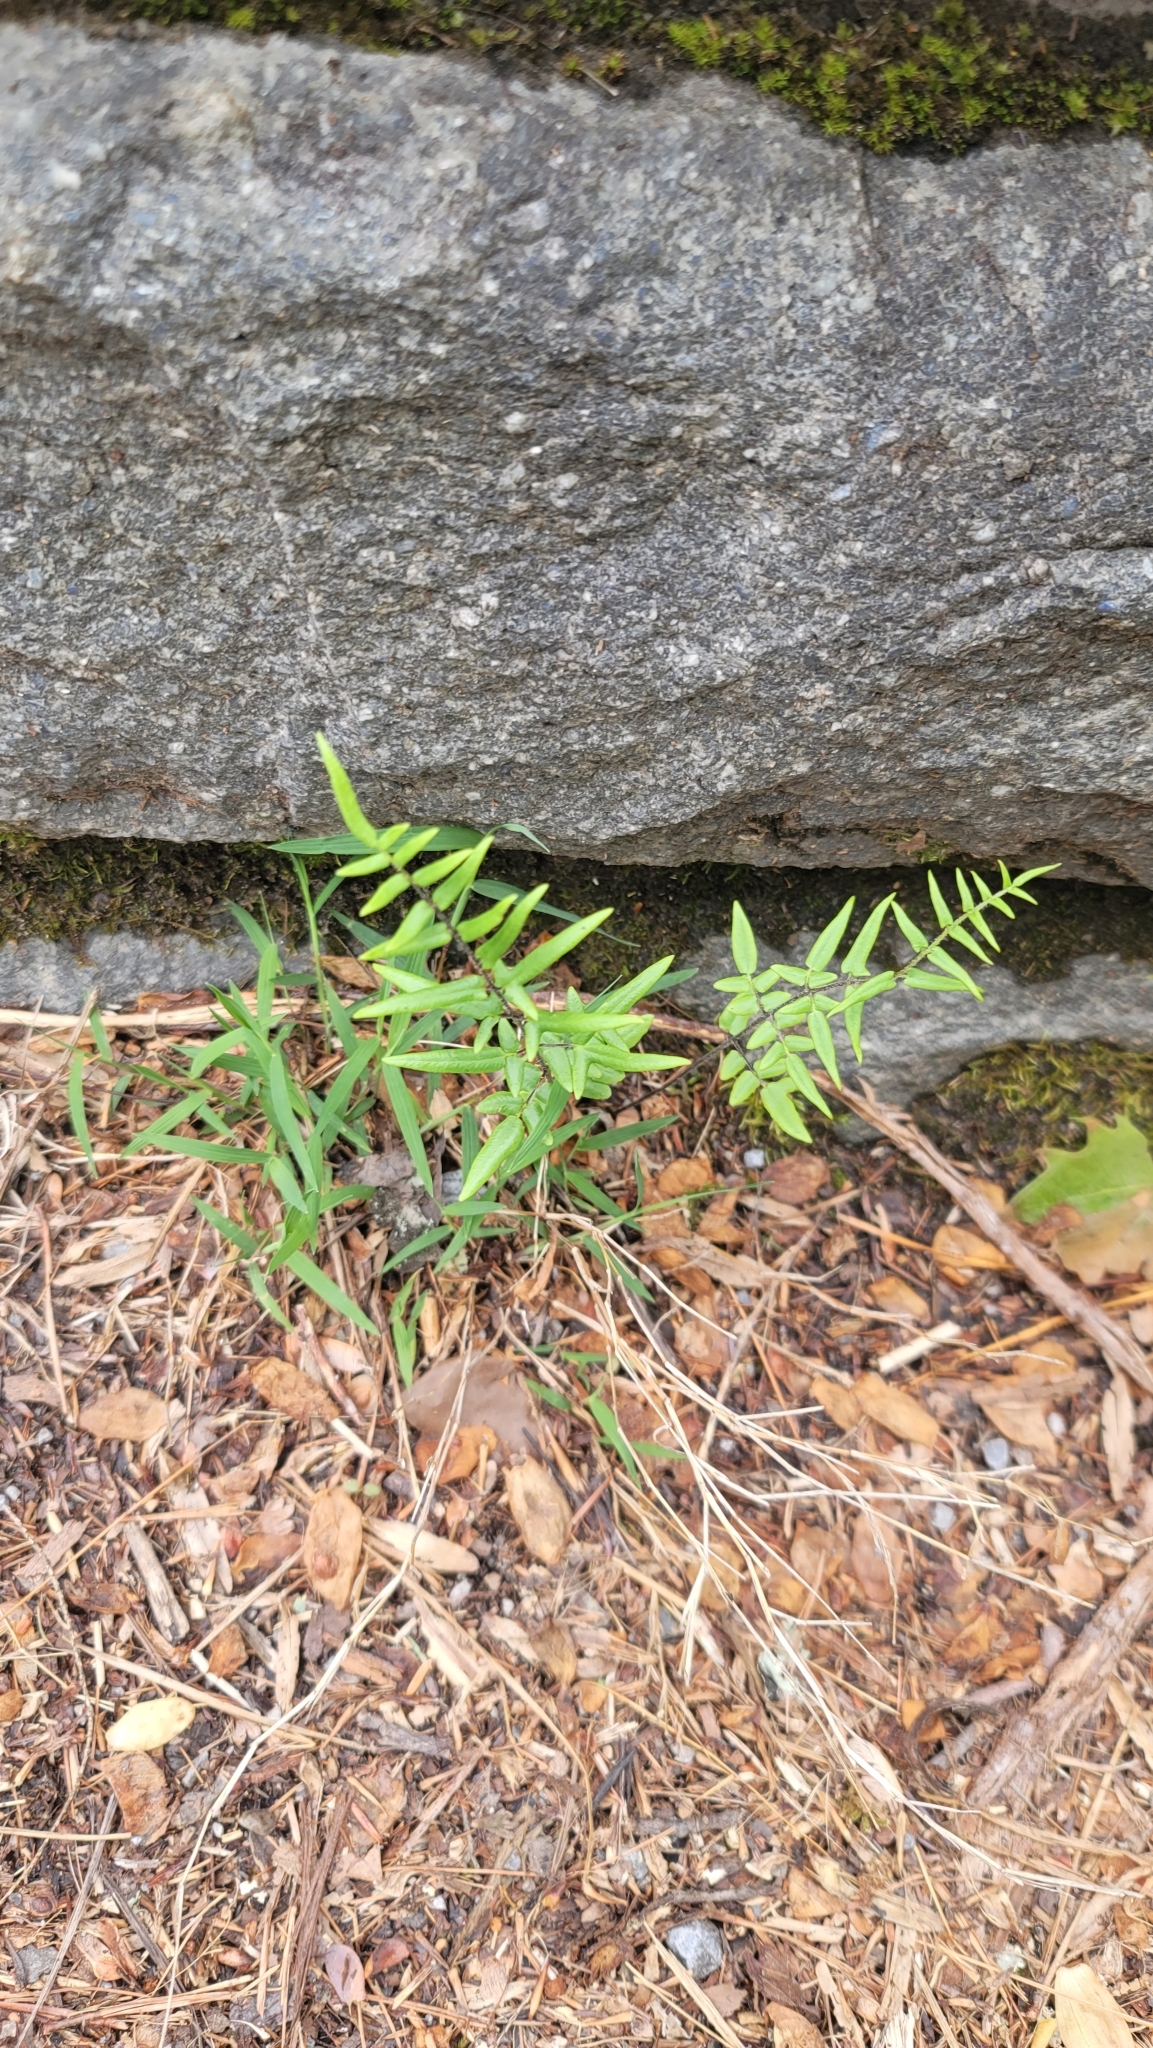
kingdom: Plantae
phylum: Tracheophyta
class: Polypodiopsida
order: Polypodiales
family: Pteridaceae
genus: Pellaea
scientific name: Pellaea atropurpurea
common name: Hairy cliffbrake
